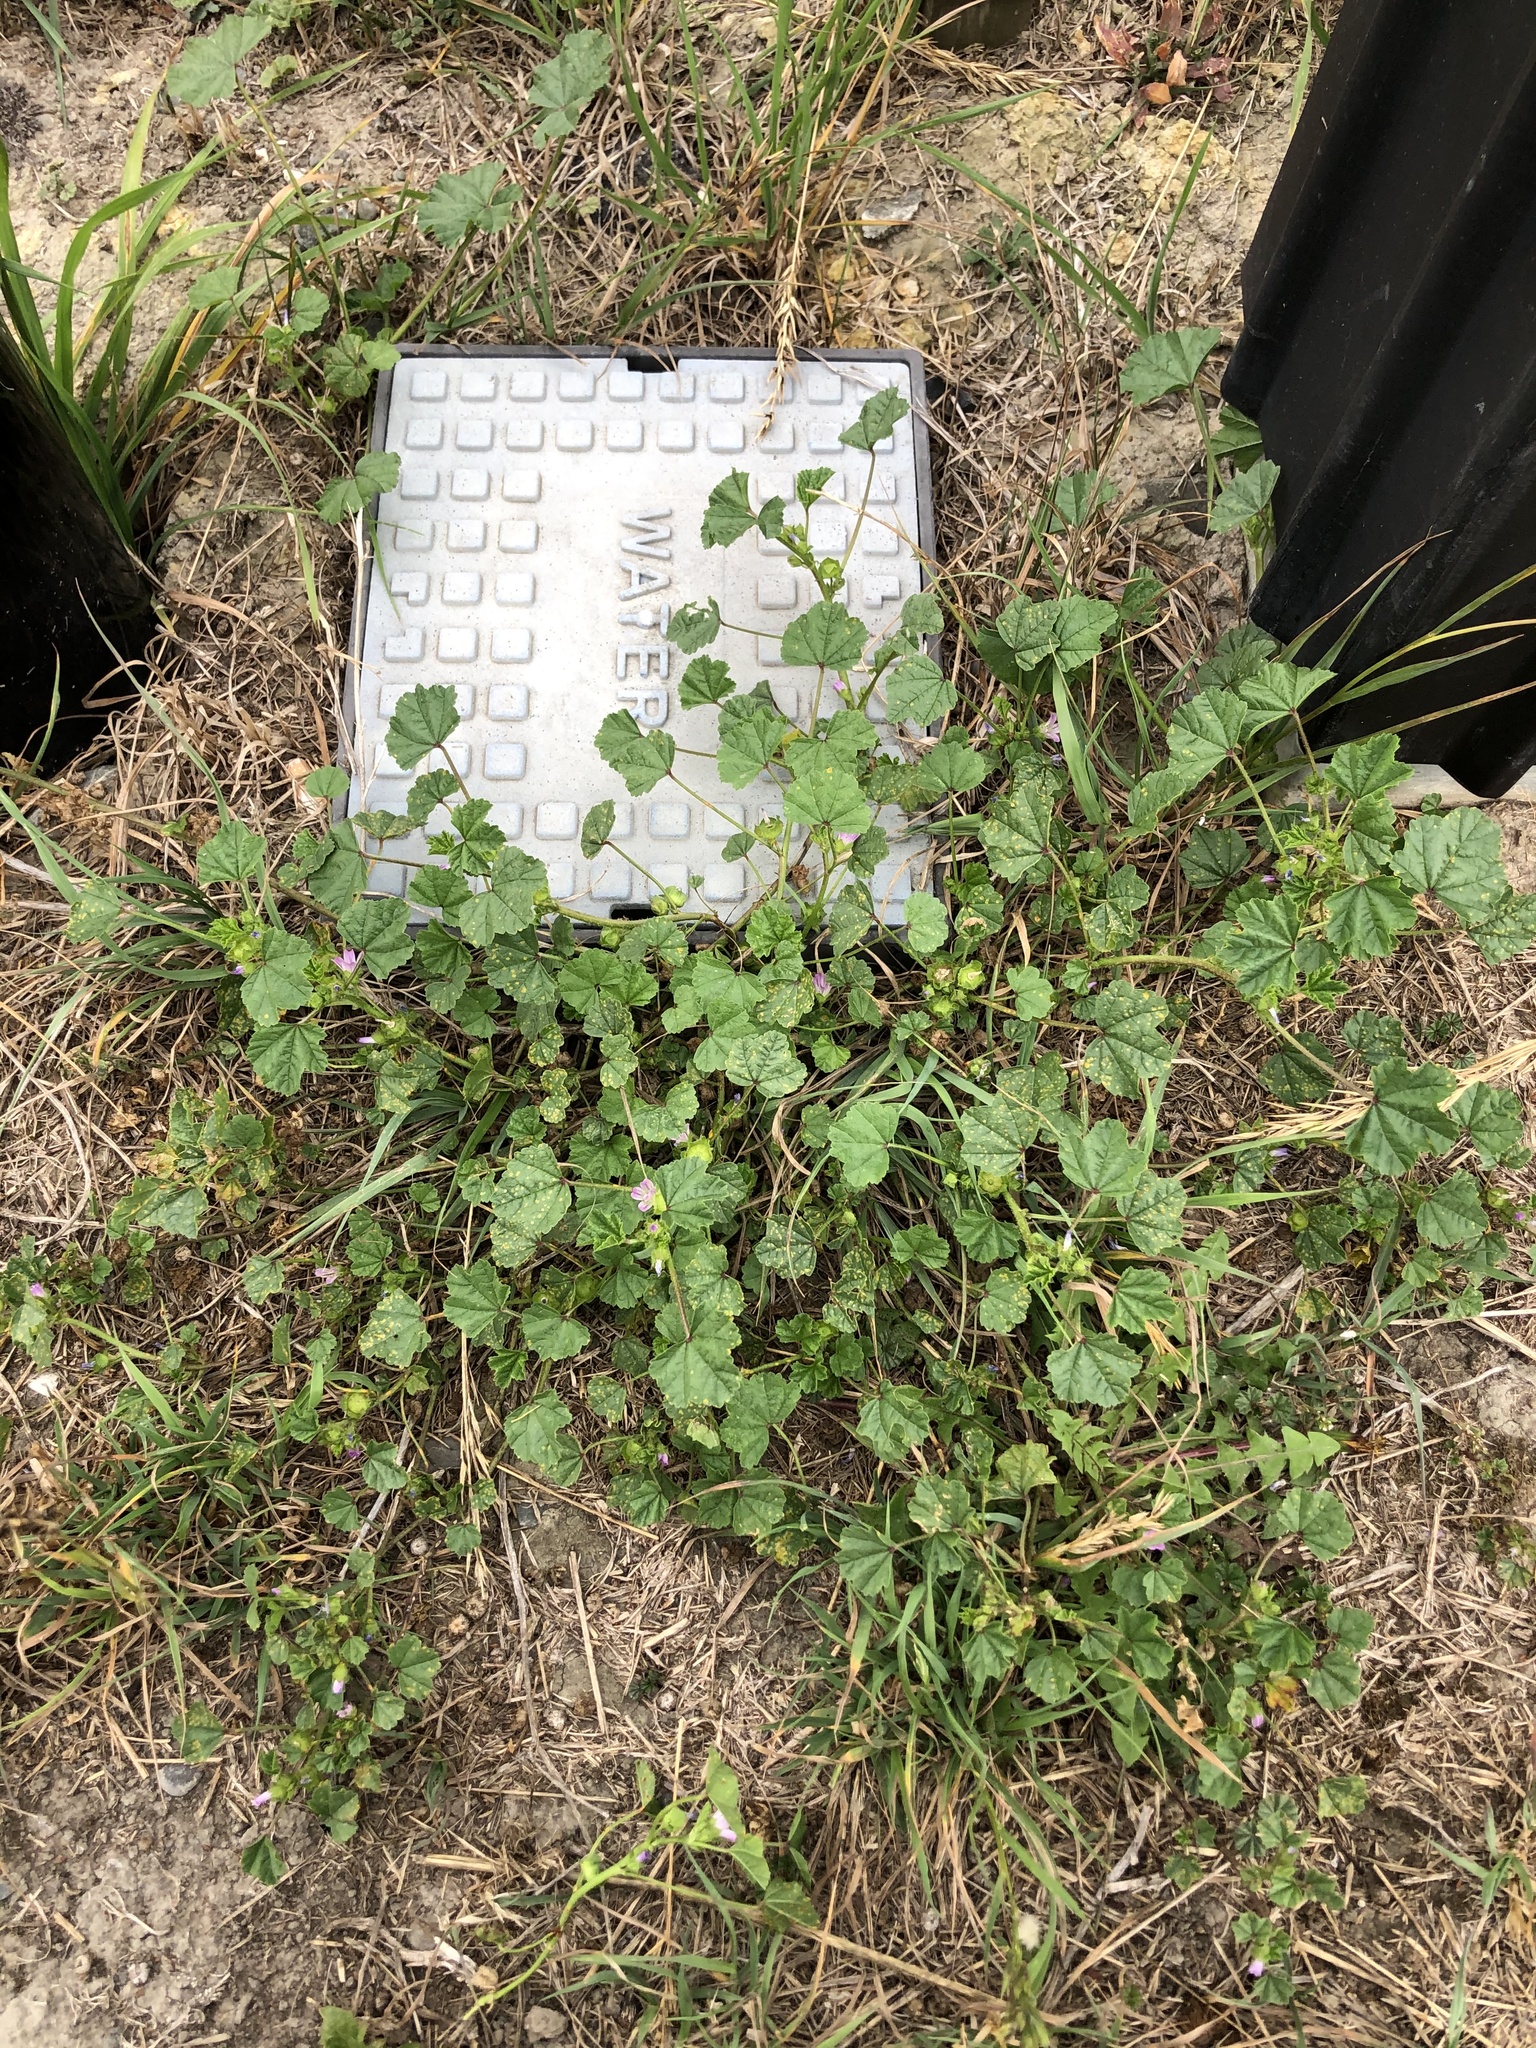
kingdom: Plantae
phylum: Tracheophyta
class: Magnoliopsida
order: Malvales
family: Malvaceae
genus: Malva
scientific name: Malva nicaeensis
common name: French mallow
